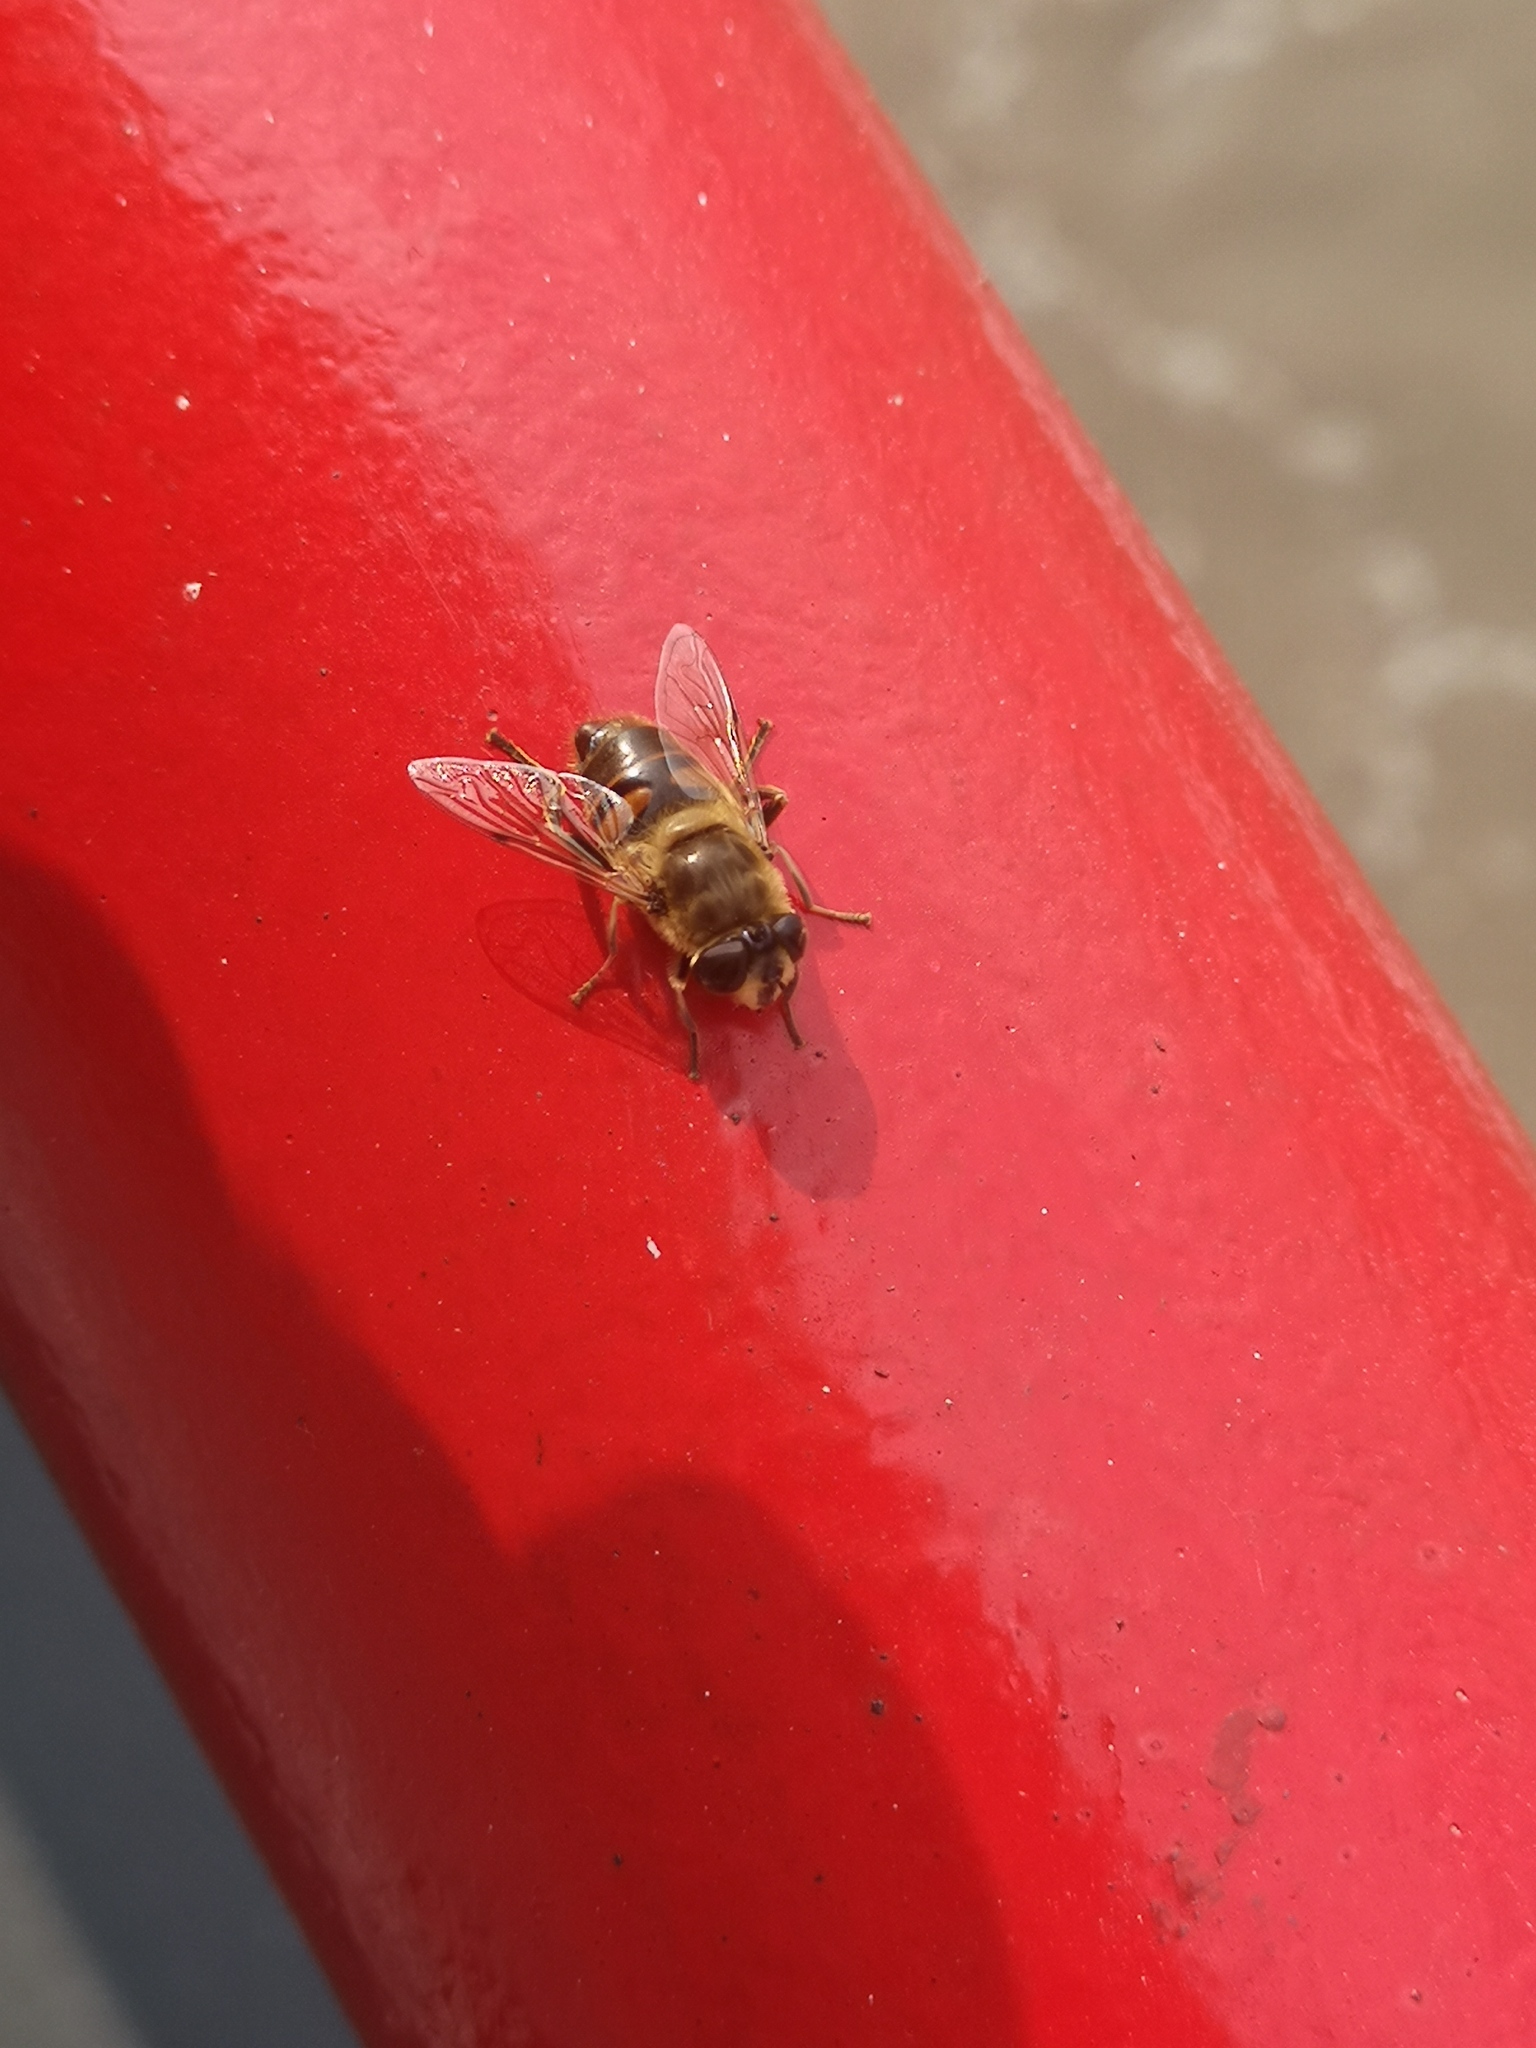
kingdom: Animalia
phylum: Arthropoda
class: Insecta
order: Diptera
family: Syrphidae
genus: Eristalis
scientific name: Eristalis tenax
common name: Drone fly
